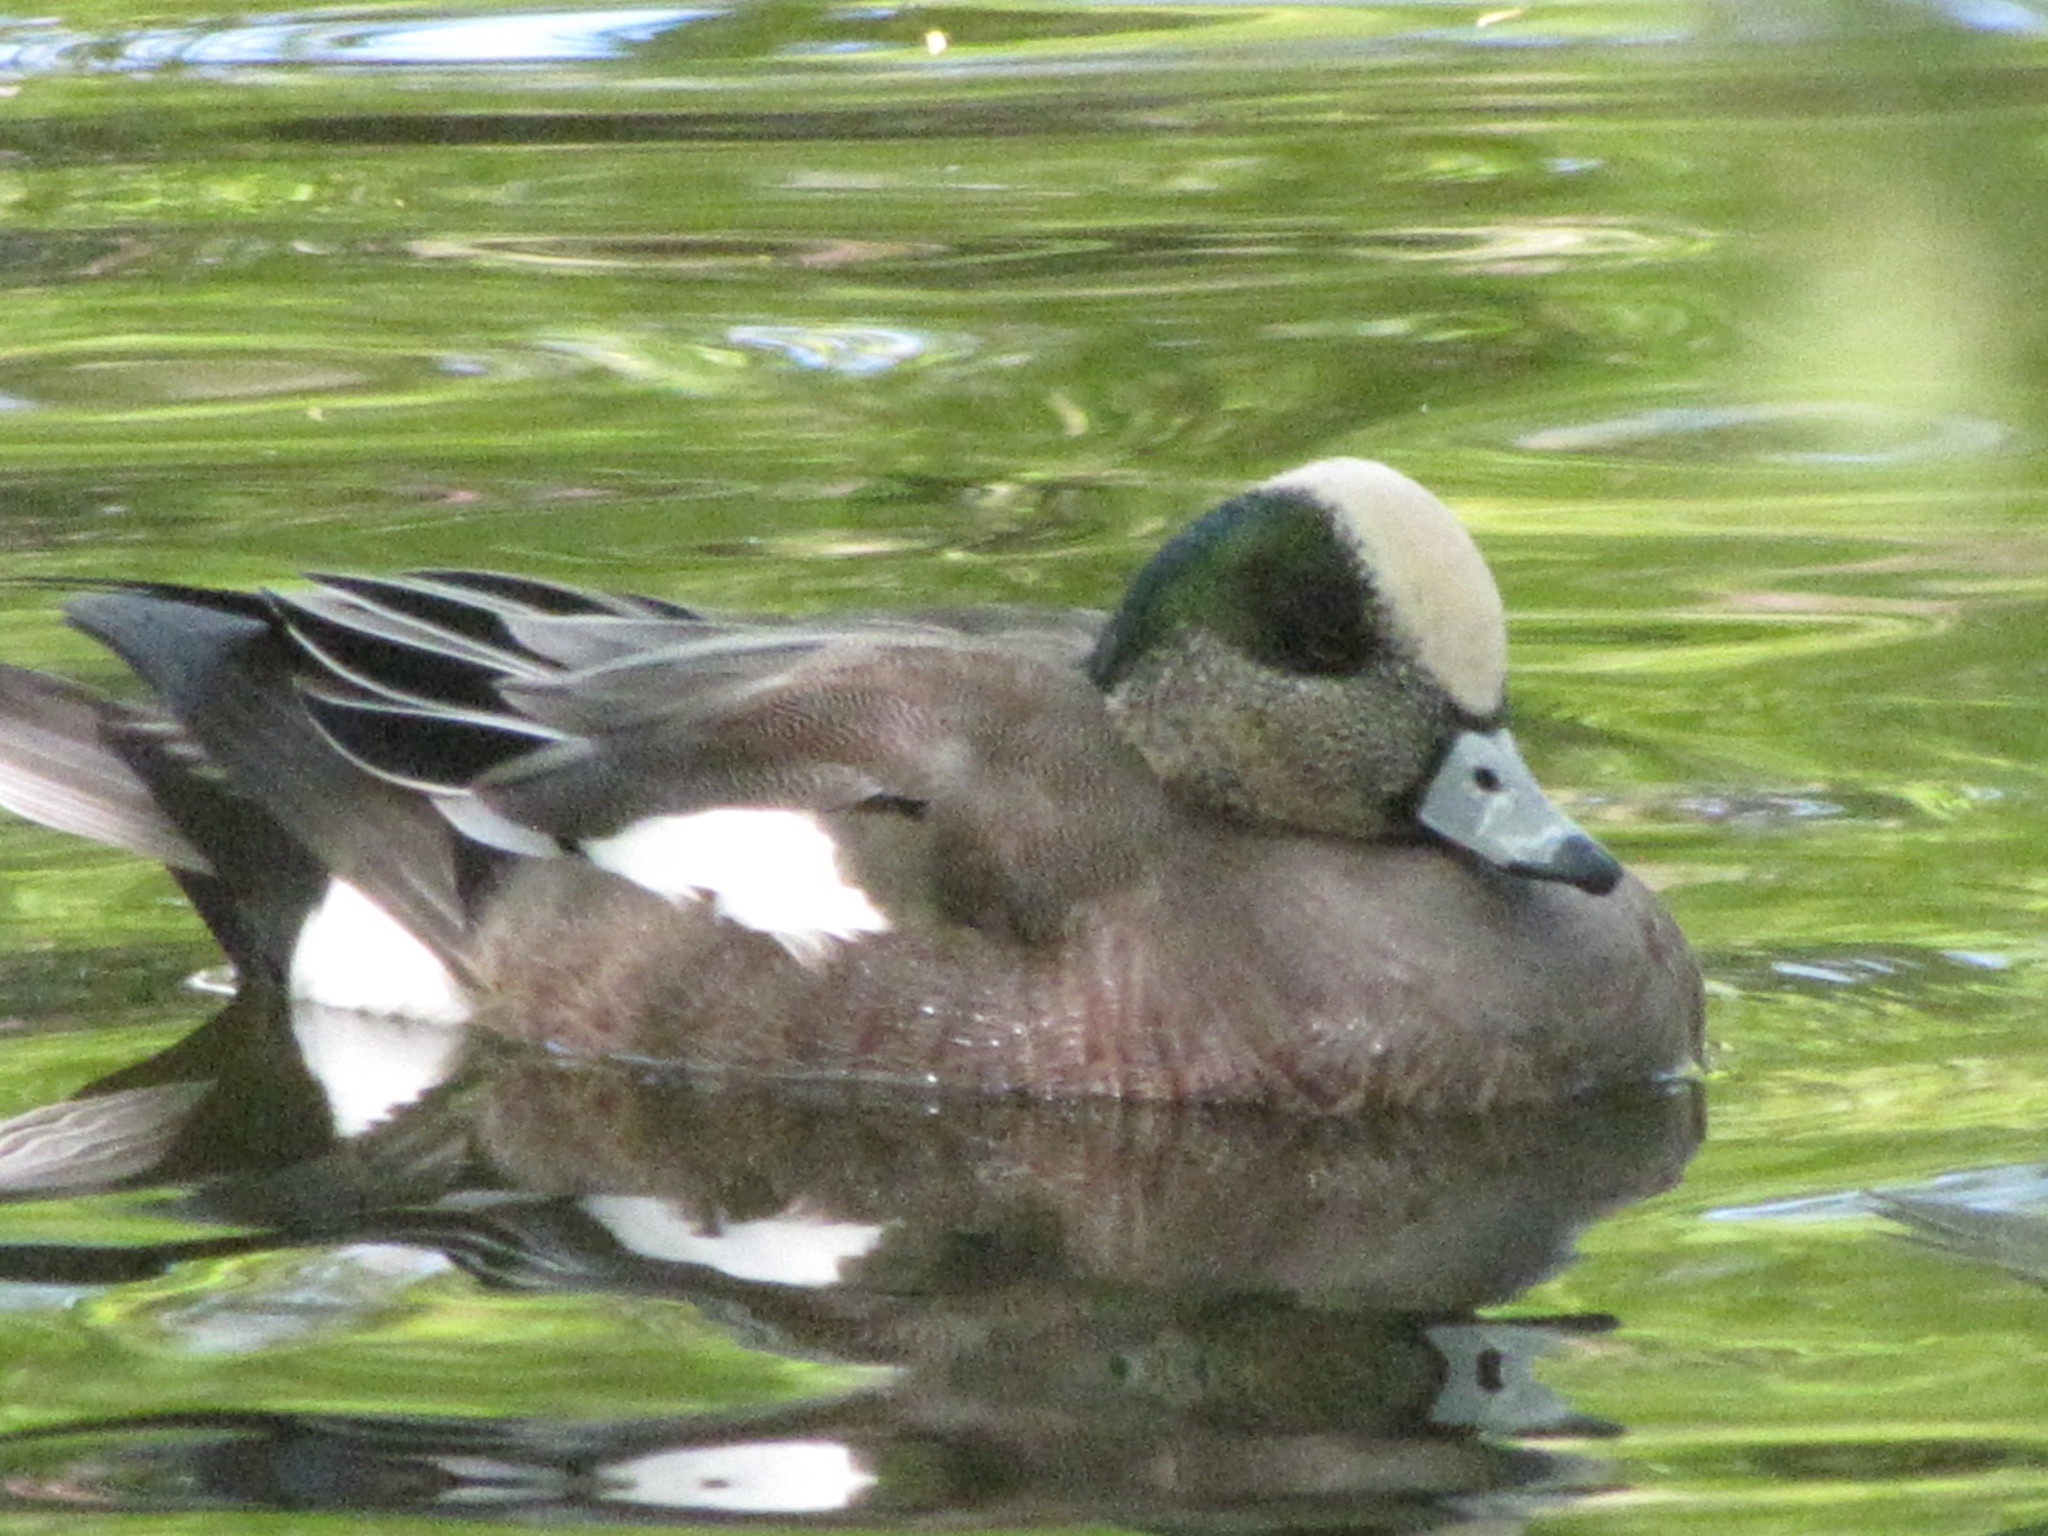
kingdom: Animalia
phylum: Chordata
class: Aves
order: Anseriformes
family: Anatidae
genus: Mareca
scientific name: Mareca americana
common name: American wigeon
